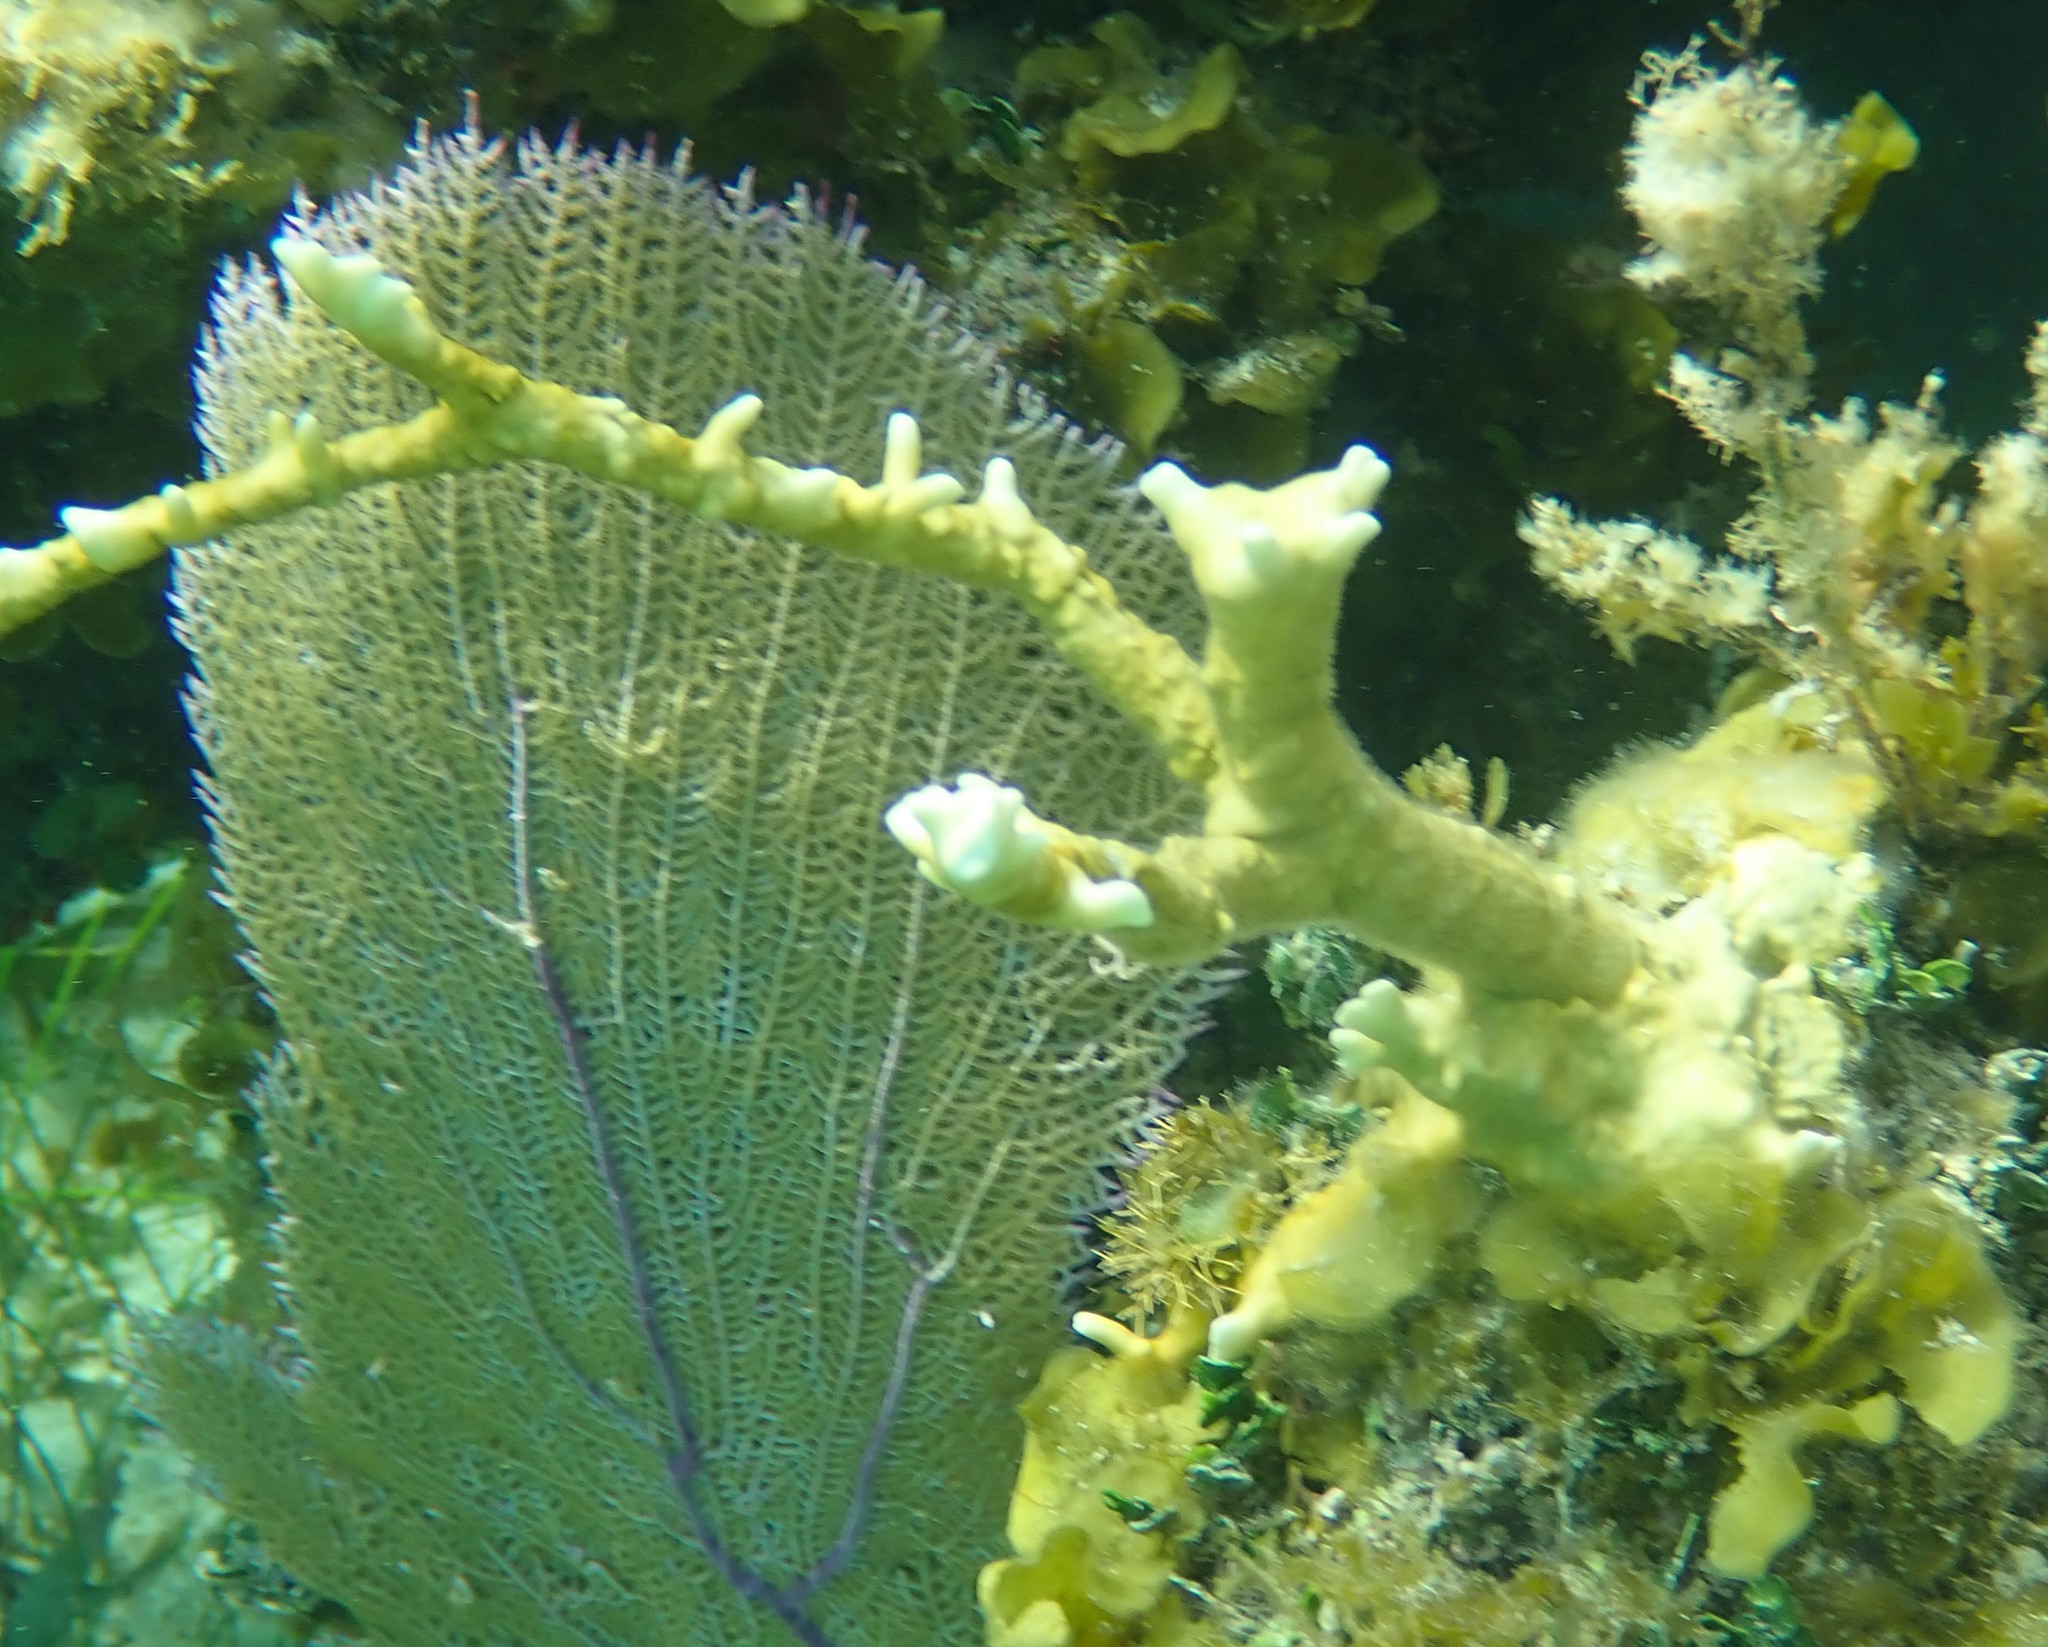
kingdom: Animalia
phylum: Cnidaria
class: Hydrozoa
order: Anthoathecata
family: Milleporidae
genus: Millepora
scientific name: Millepora alcicornis
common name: Branching fire coral
